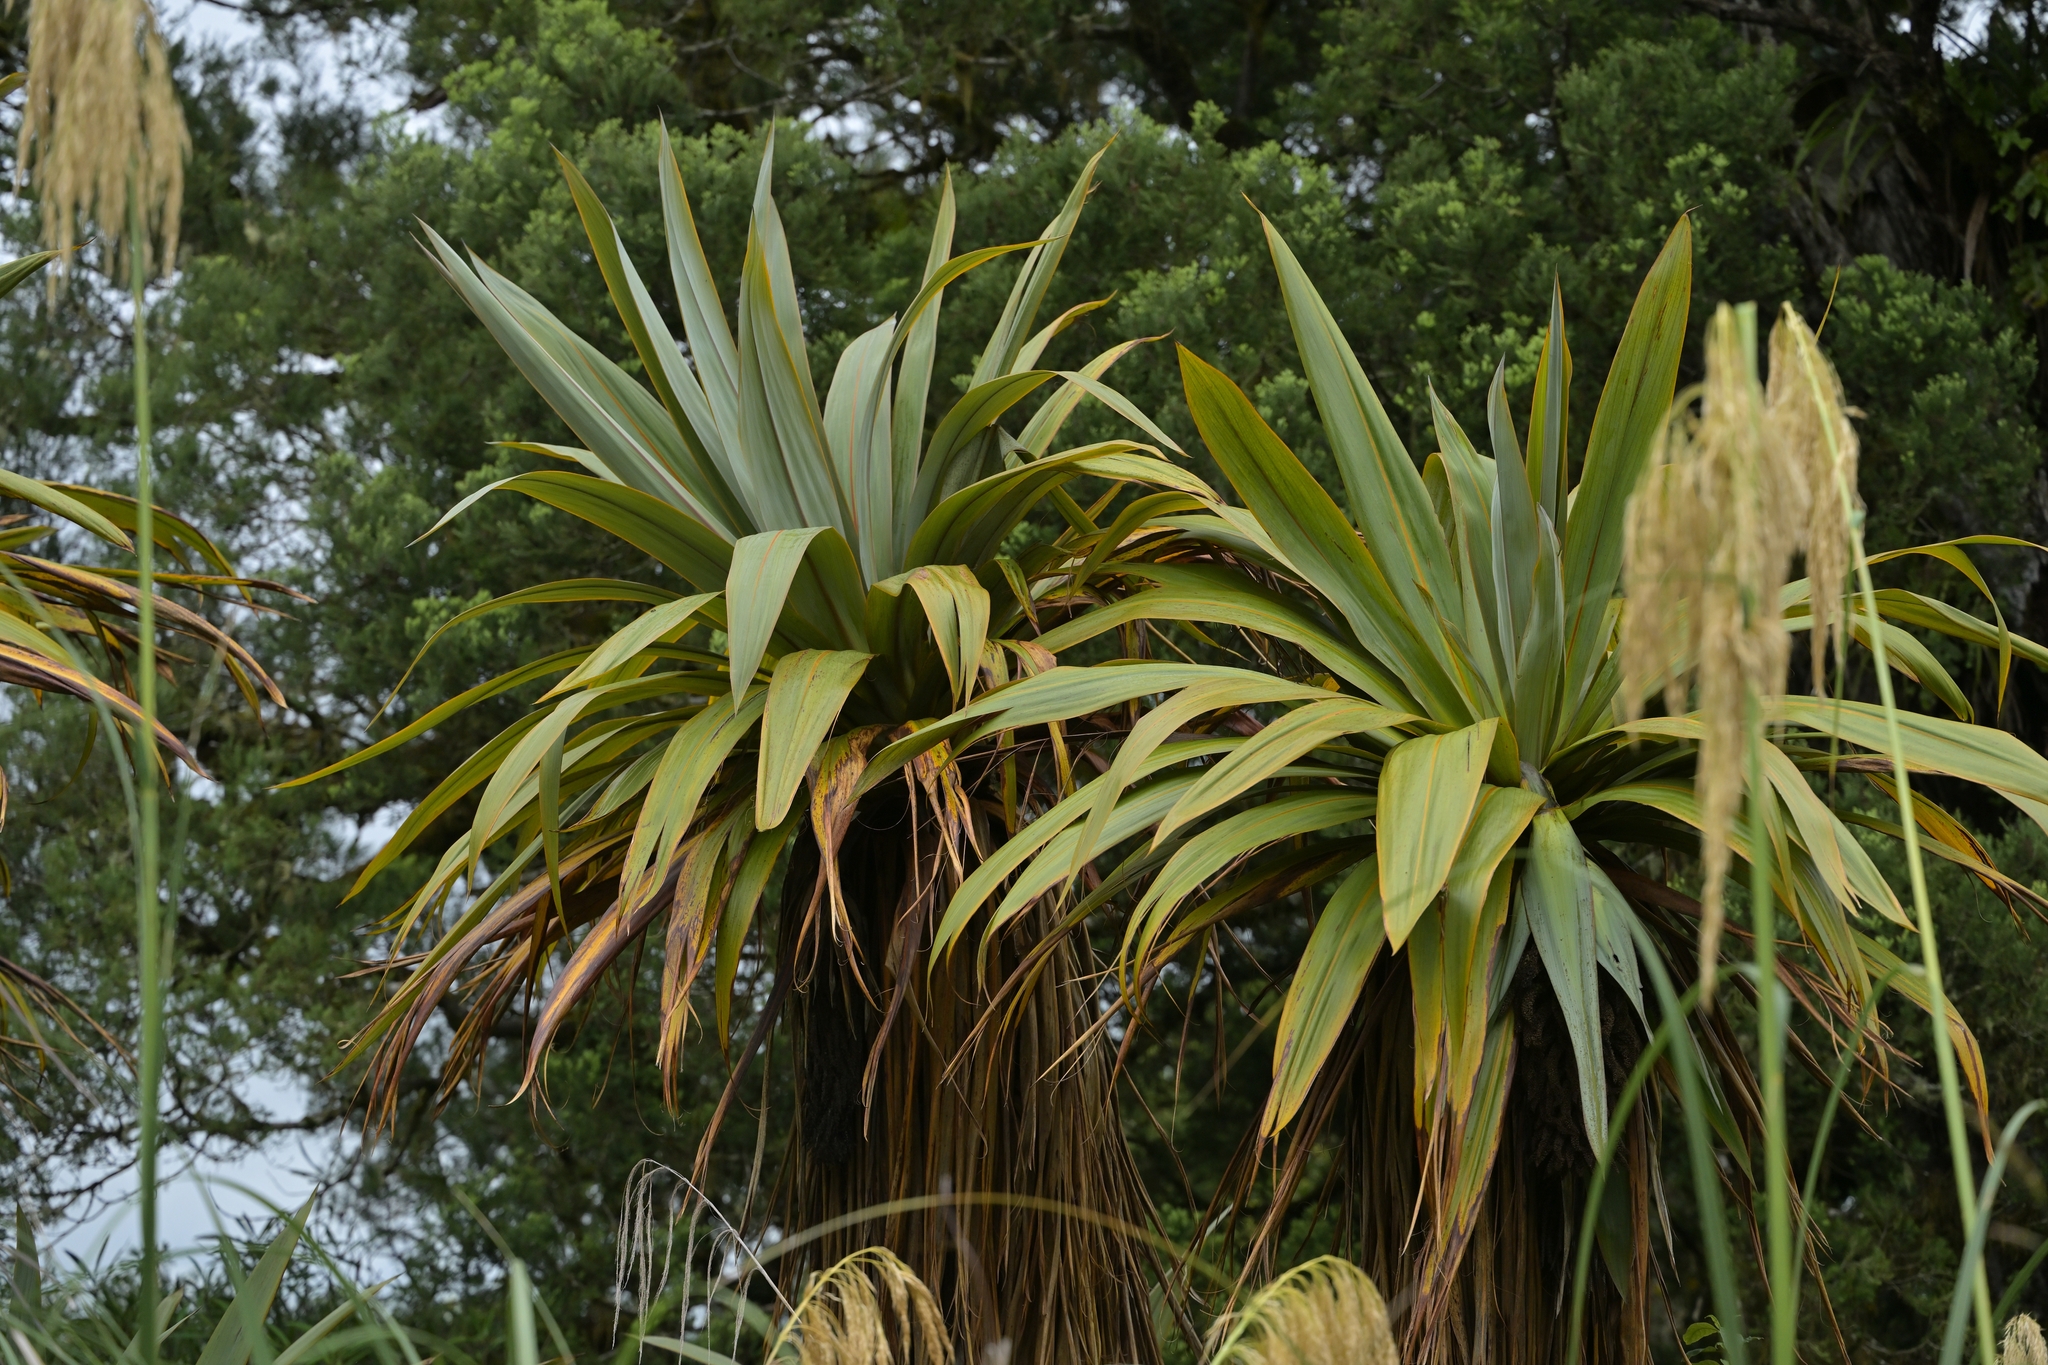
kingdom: Plantae
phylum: Tracheophyta
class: Liliopsida
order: Asparagales
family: Asparagaceae
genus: Cordyline
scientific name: Cordyline indivisa
